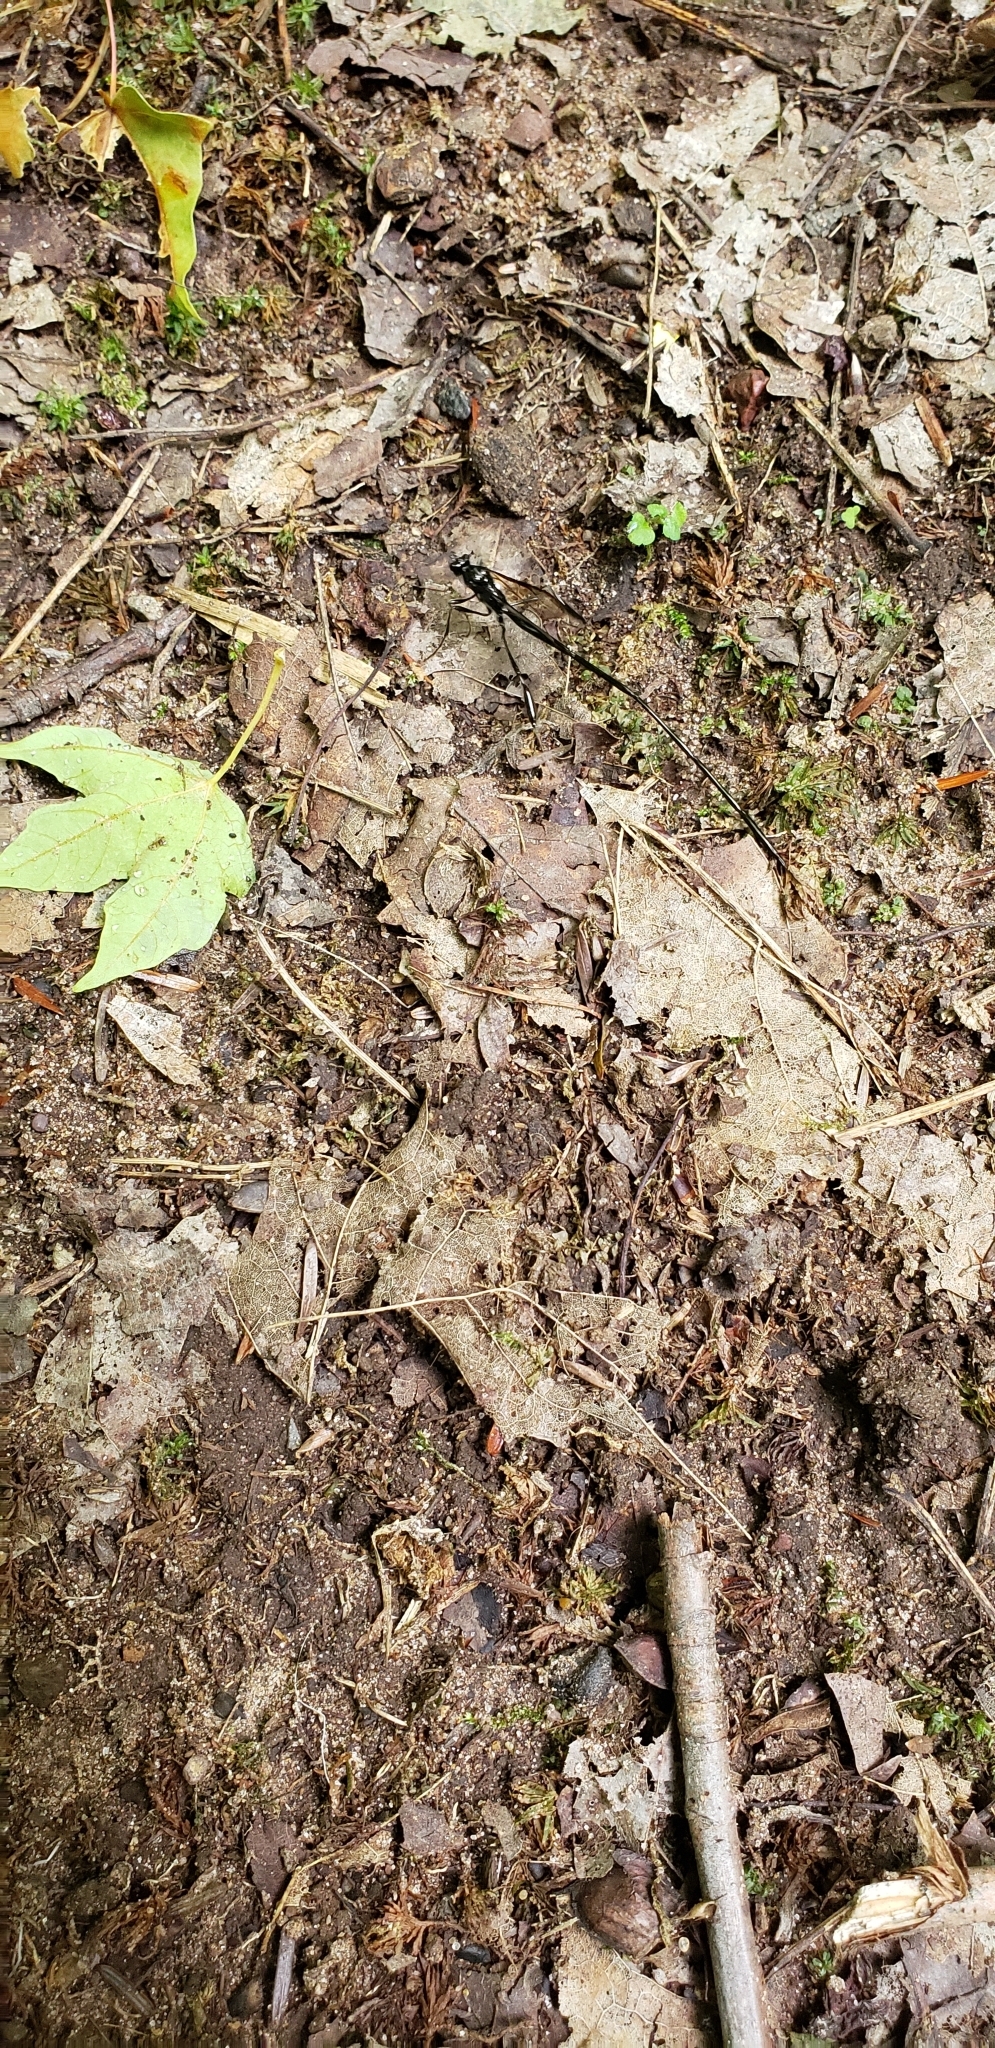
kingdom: Animalia
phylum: Arthropoda
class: Insecta
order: Hymenoptera
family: Pelecinidae
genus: Pelecinus
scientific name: Pelecinus polyturator
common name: American pelecinid wasp
